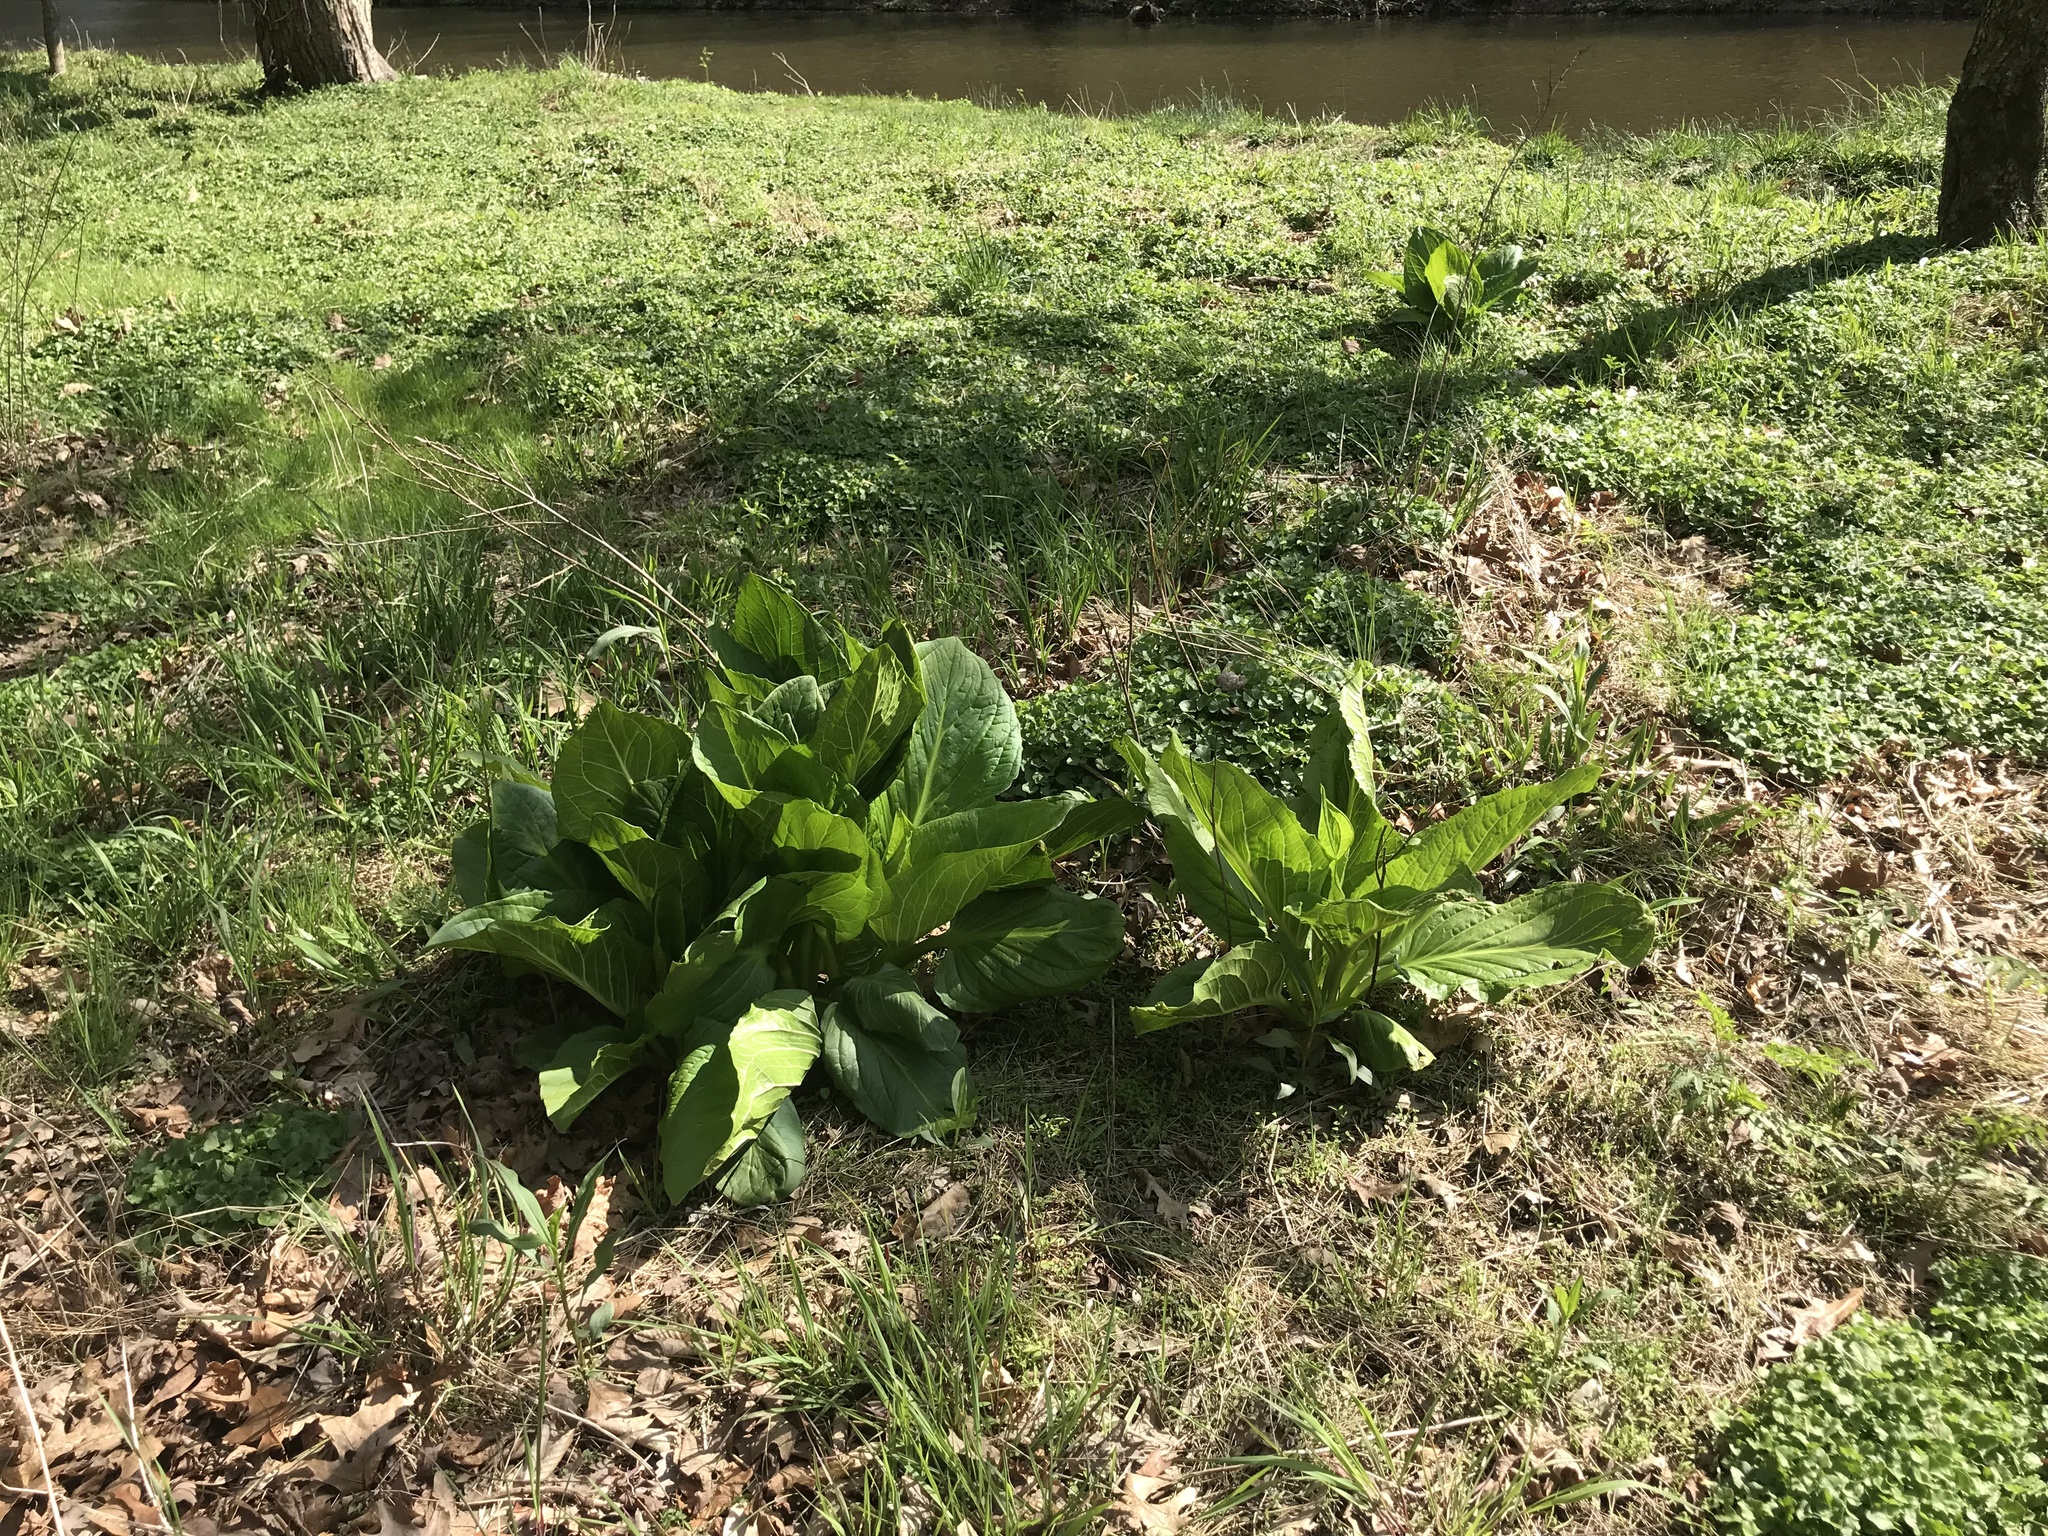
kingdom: Plantae
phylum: Tracheophyta
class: Liliopsida
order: Alismatales
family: Araceae
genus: Symplocarpus
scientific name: Symplocarpus foetidus
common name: Eastern skunk cabbage
